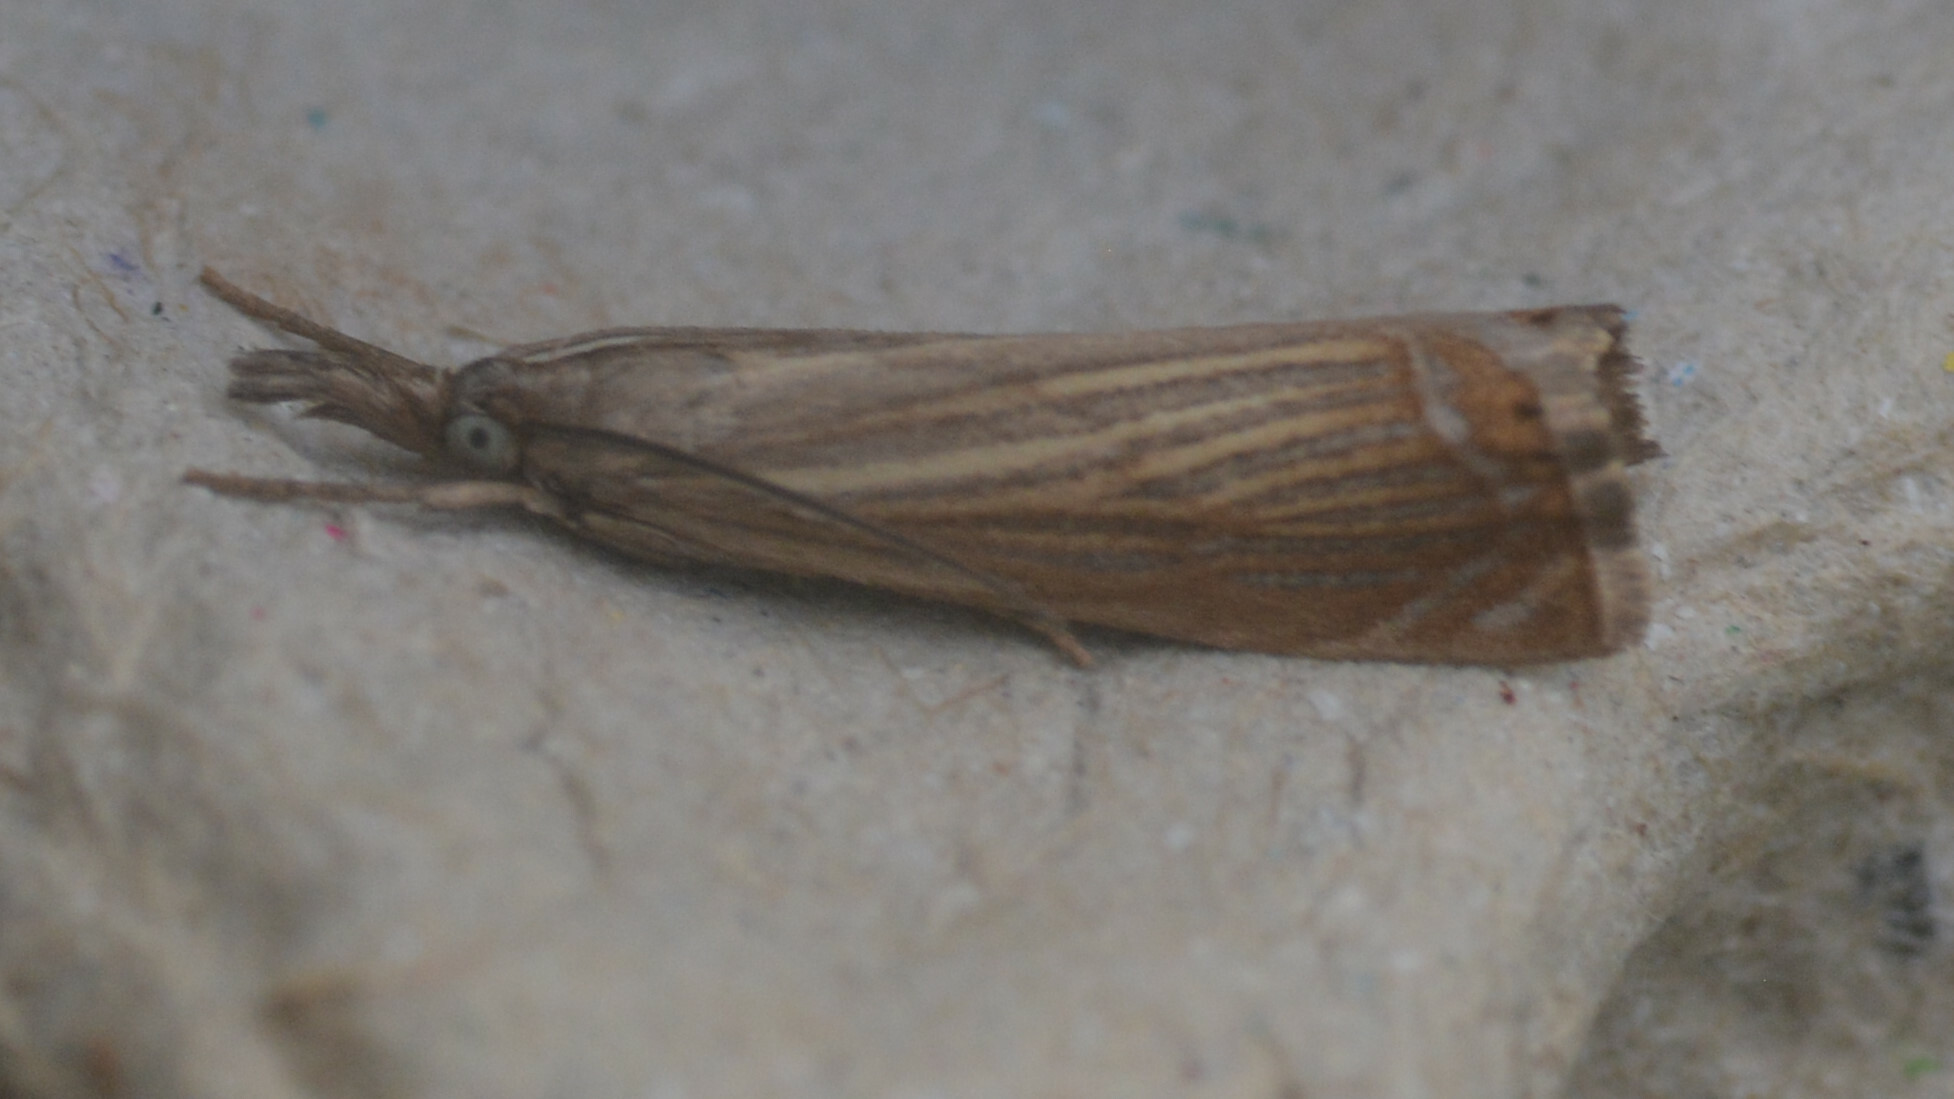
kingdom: Animalia
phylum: Arthropoda
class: Insecta
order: Lepidoptera
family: Crambidae
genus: Chrysoteuchia
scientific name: Chrysoteuchia culmella
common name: Garden grass-veneer
